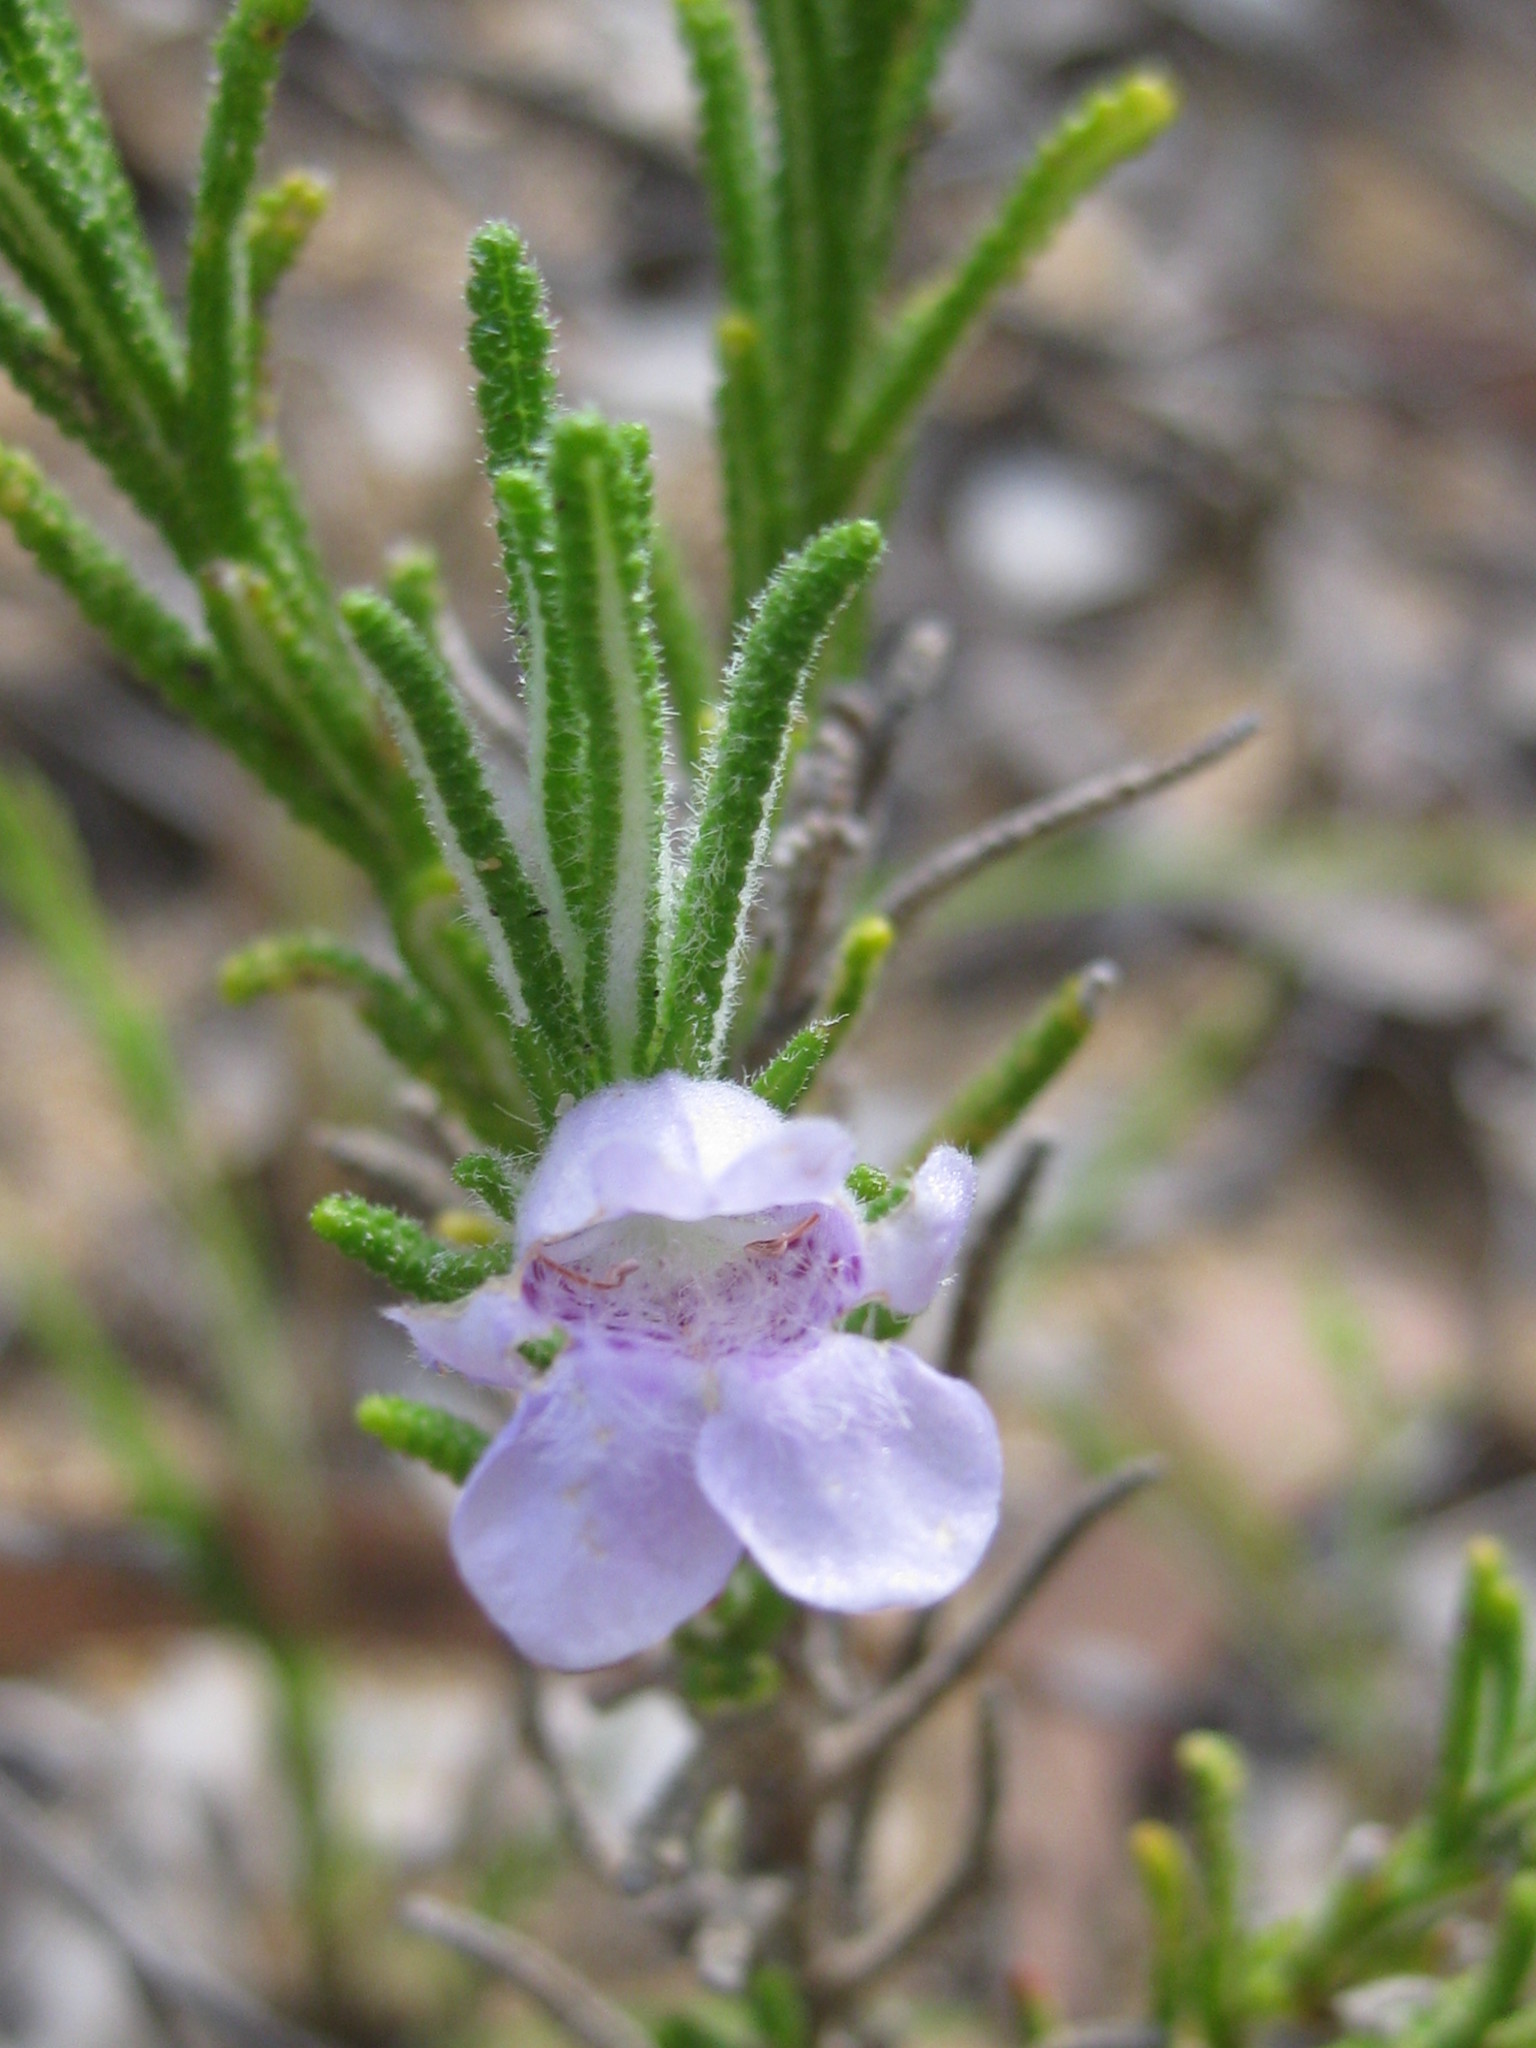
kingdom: Plantae
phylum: Tracheophyta
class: Magnoliopsida
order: Lamiales
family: Lamiaceae
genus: Chloanthes
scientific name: Chloanthes parviflora
